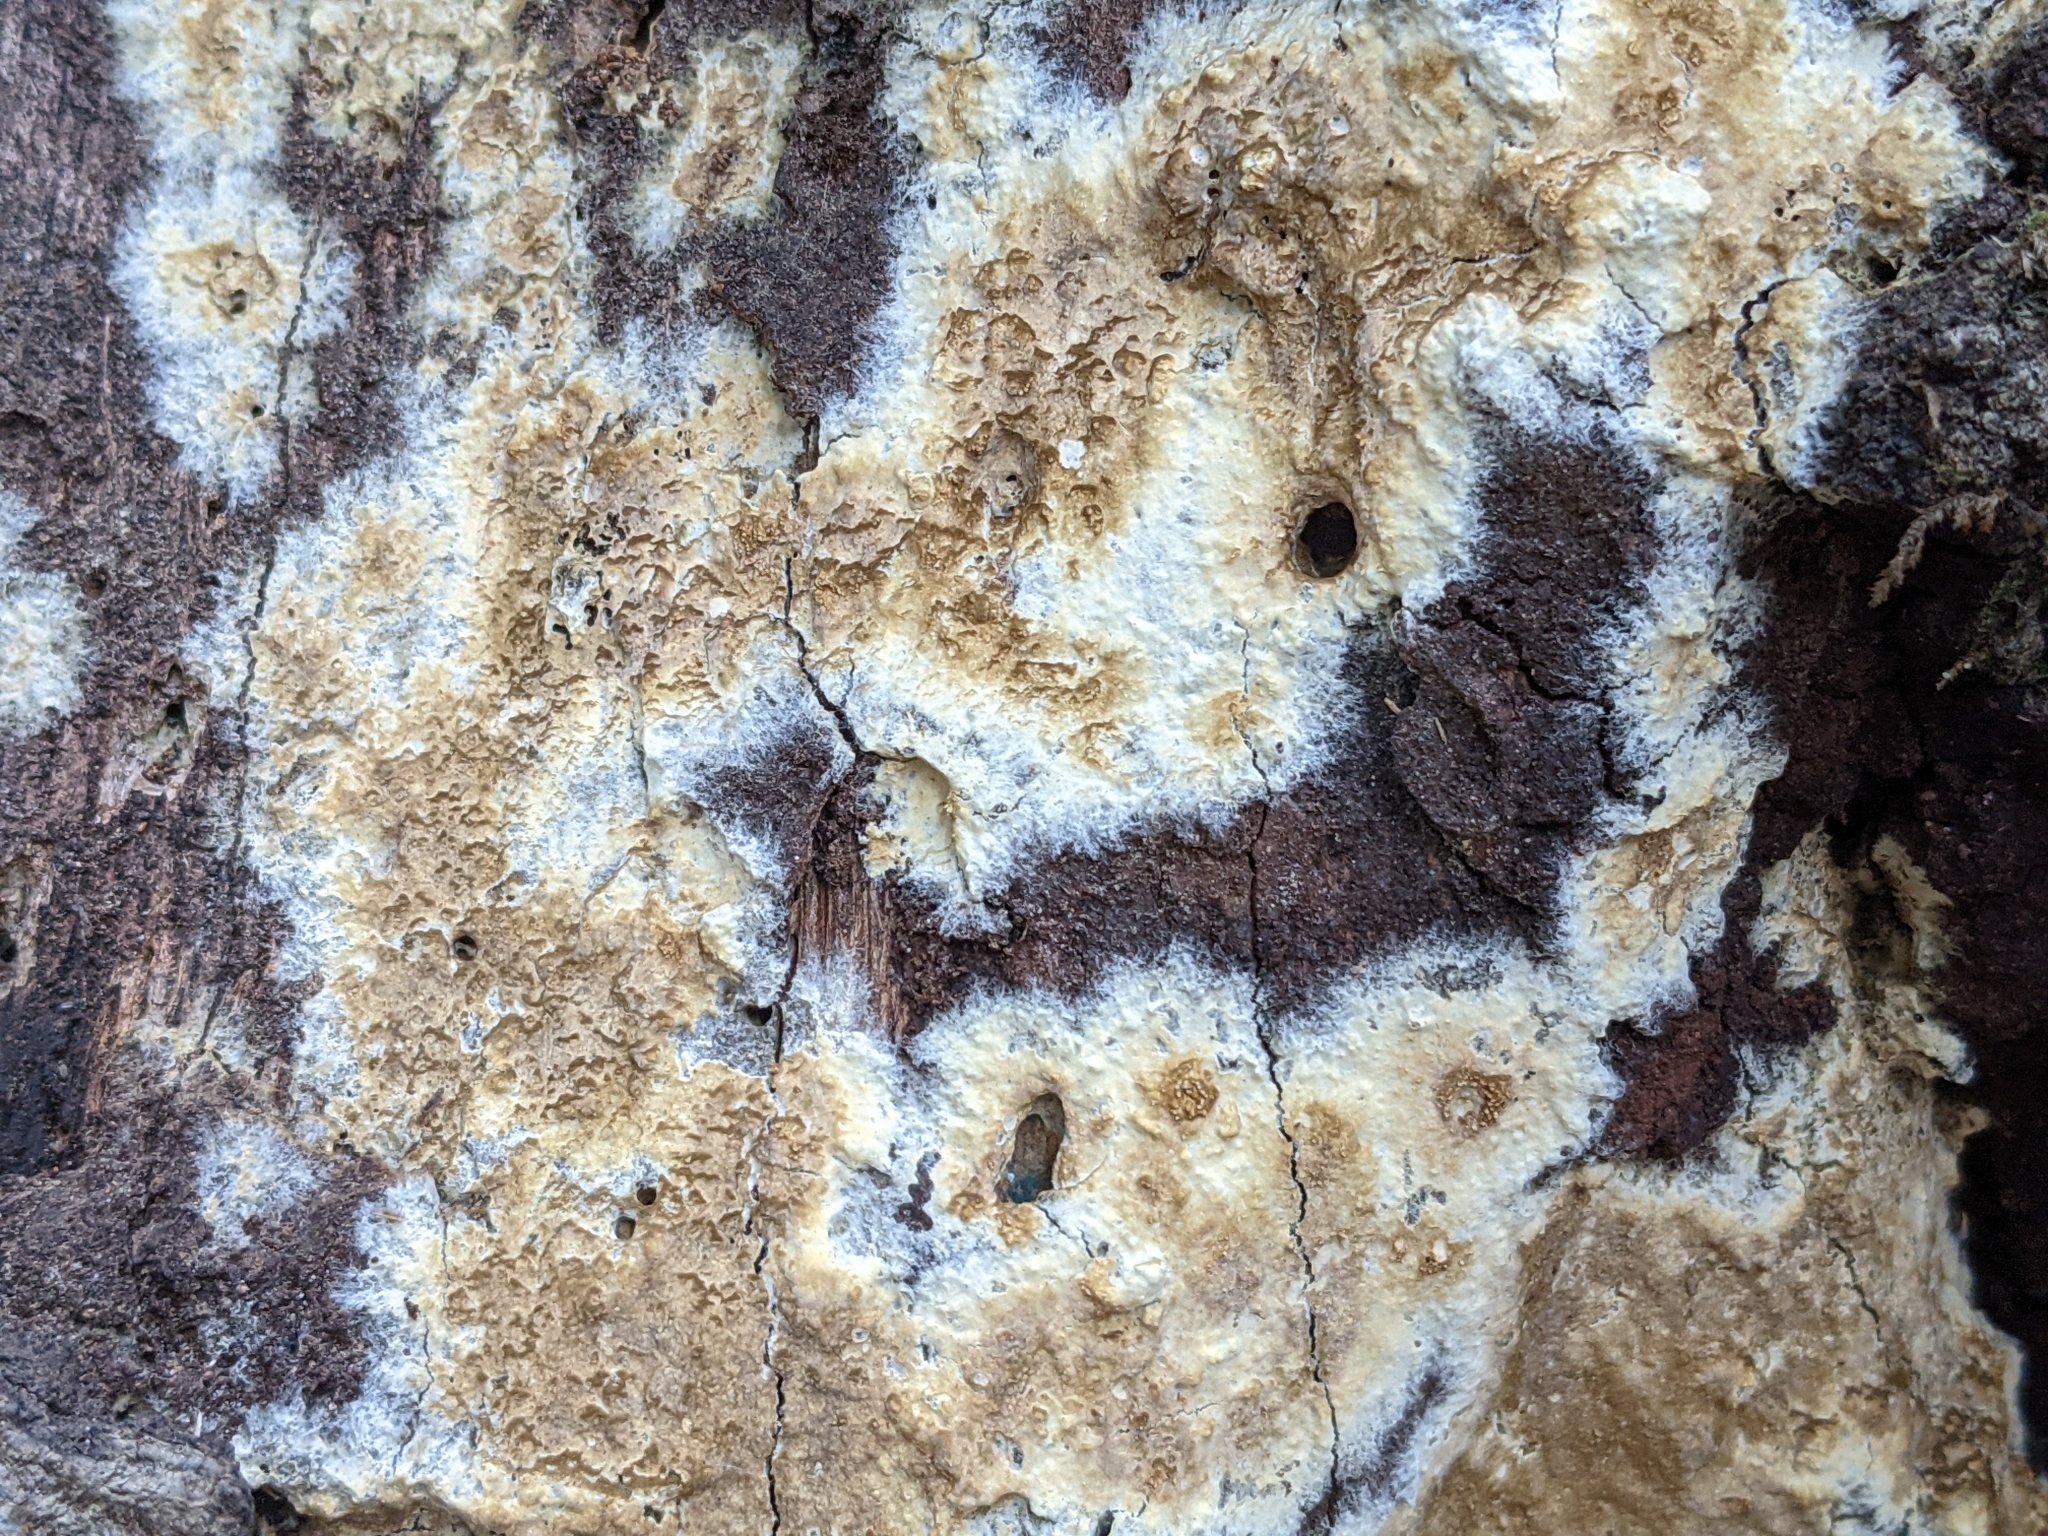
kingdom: Fungi
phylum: Basidiomycota
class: Agaricomycetes
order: Boletales
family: Coniophoraceae
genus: Coniophora
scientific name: Coniophora puteana
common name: Cellar fungus
